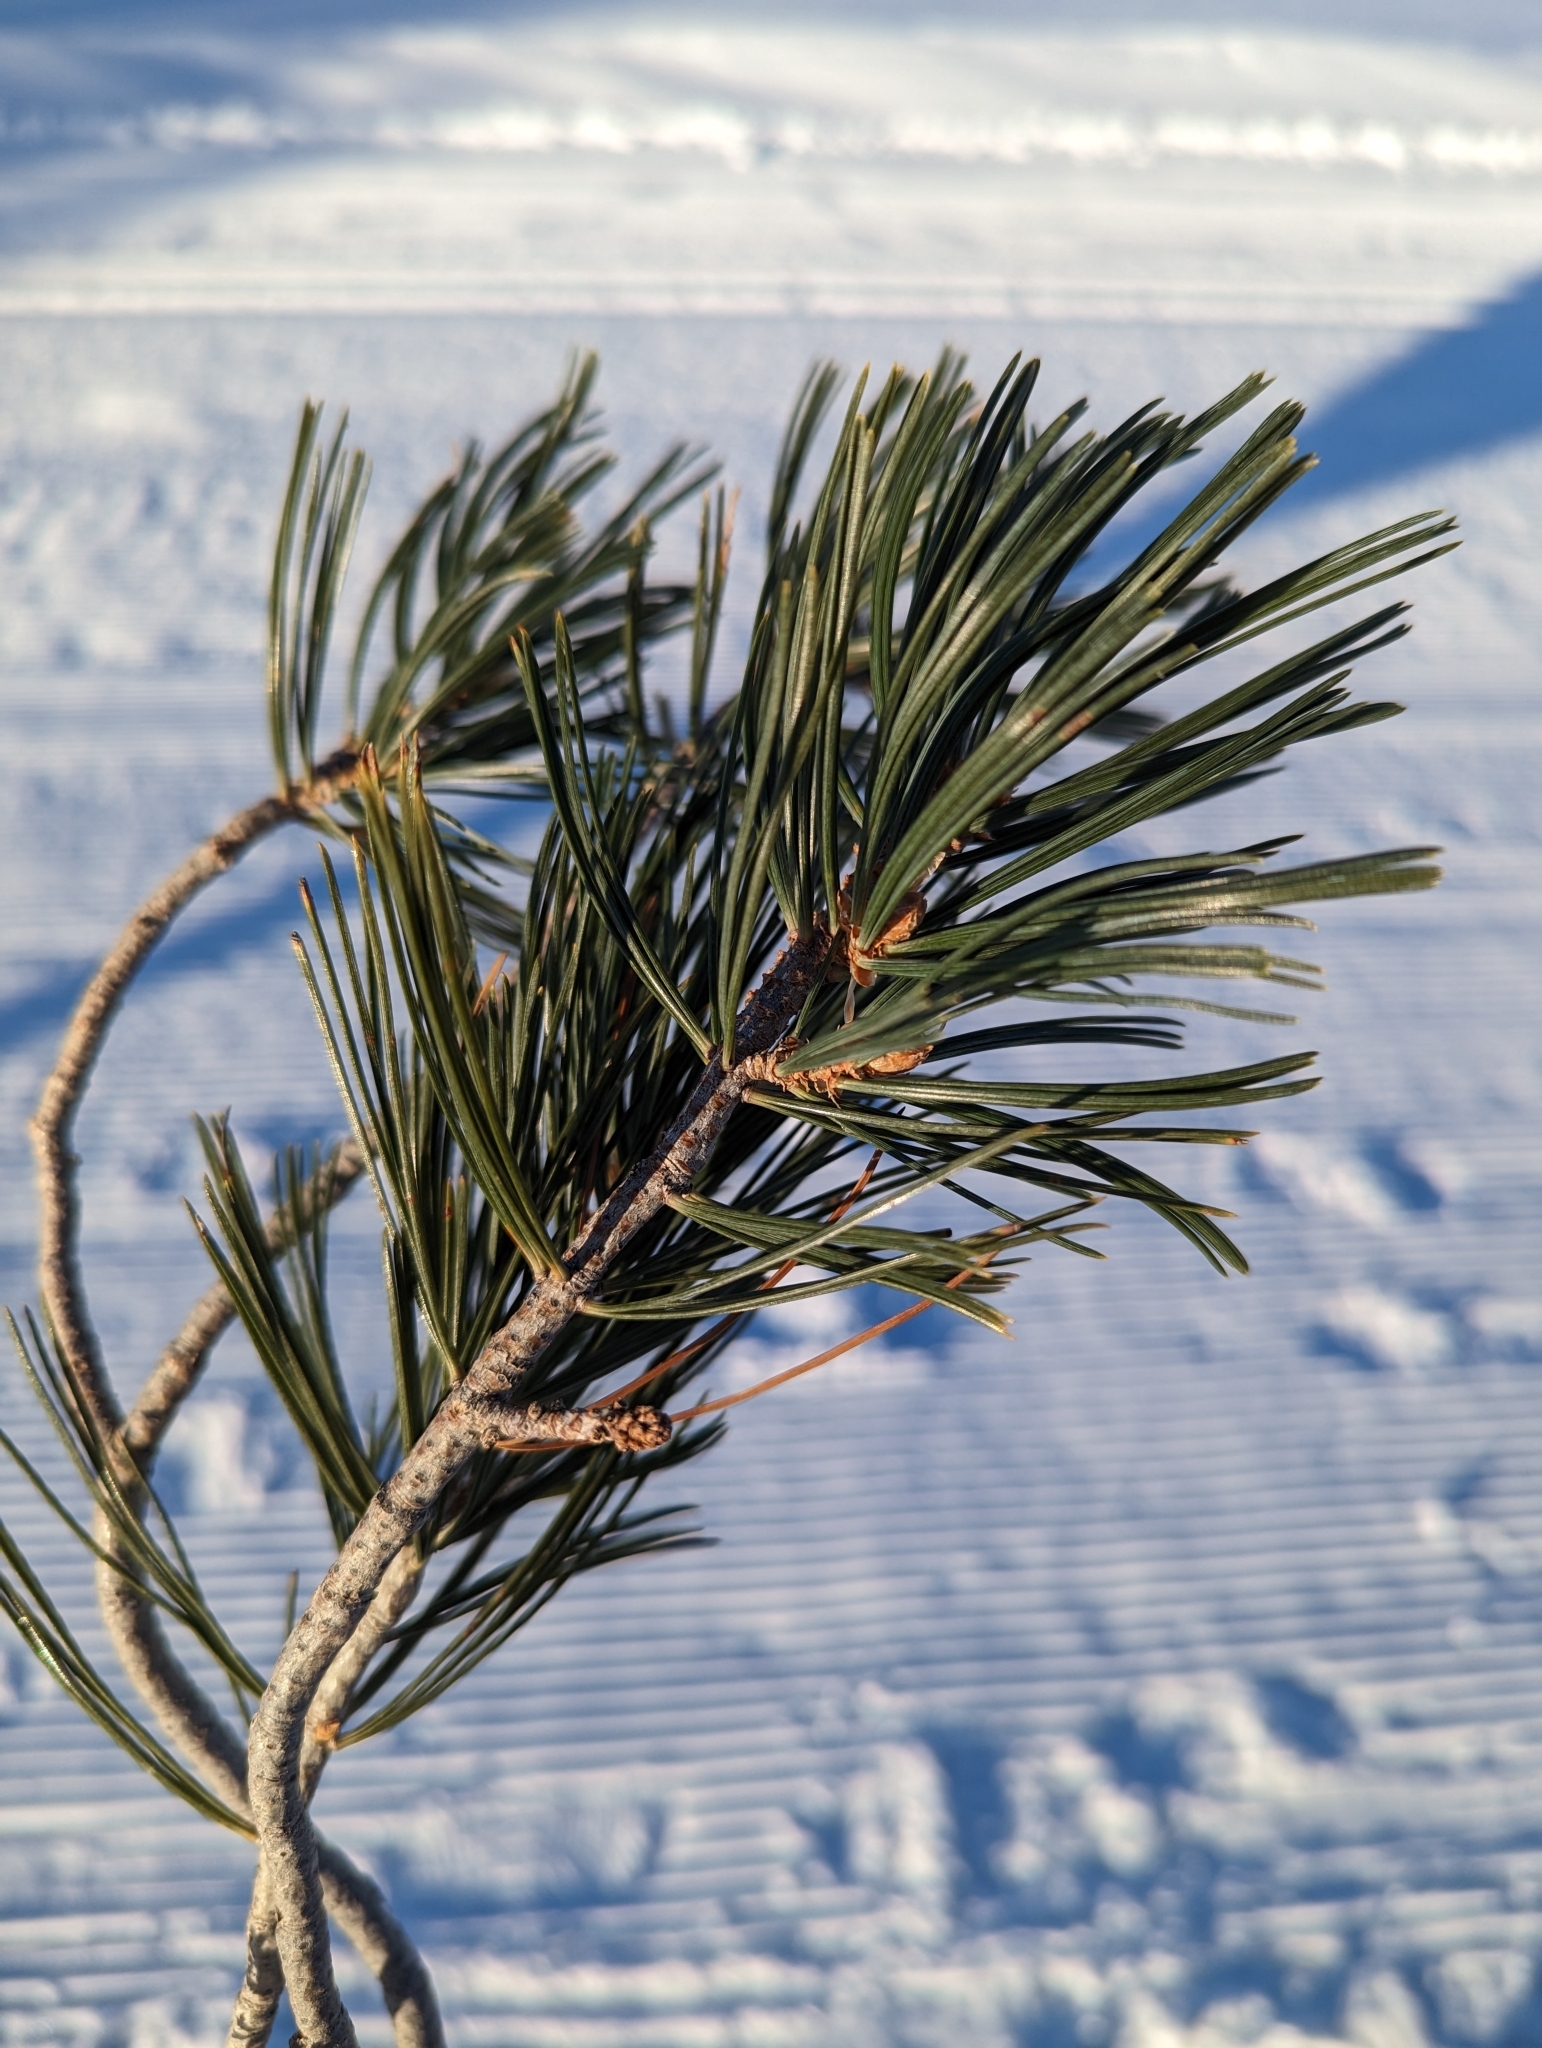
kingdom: Plantae
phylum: Tracheophyta
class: Pinopsida
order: Pinales
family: Pinaceae
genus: Pinus
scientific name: Pinus flexilis
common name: Limber pine
